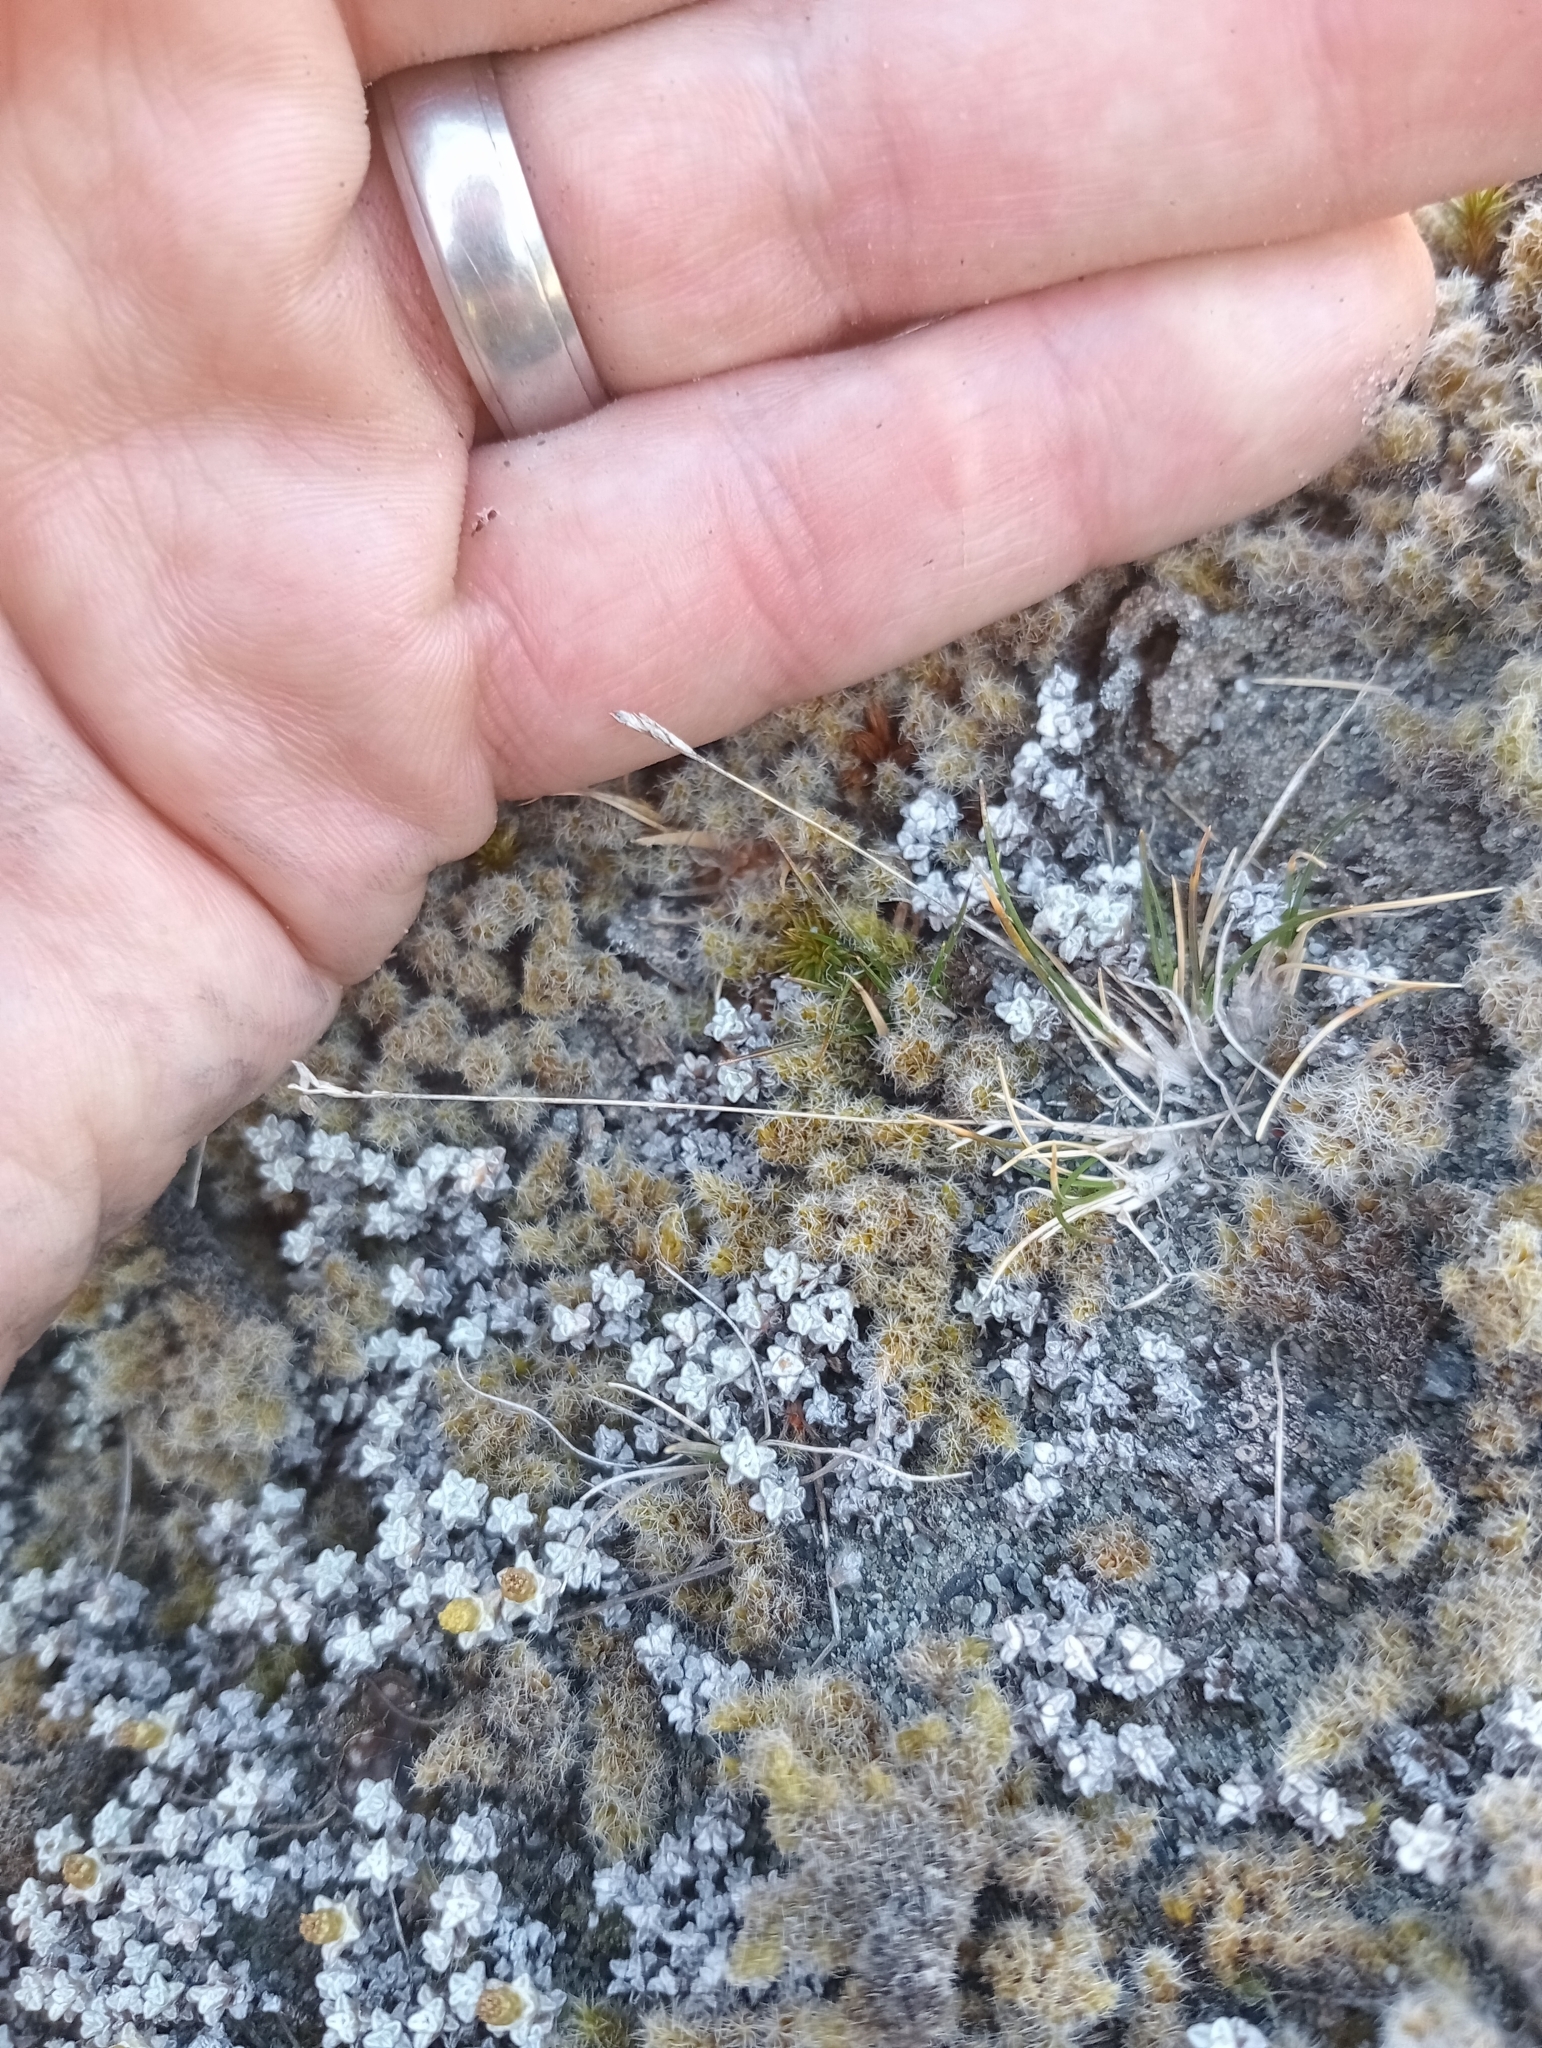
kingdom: Plantae
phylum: Tracheophyta
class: Liliopsida
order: Poales
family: Poaceae
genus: Poa
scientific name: Poa maniototo
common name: Desert poa
